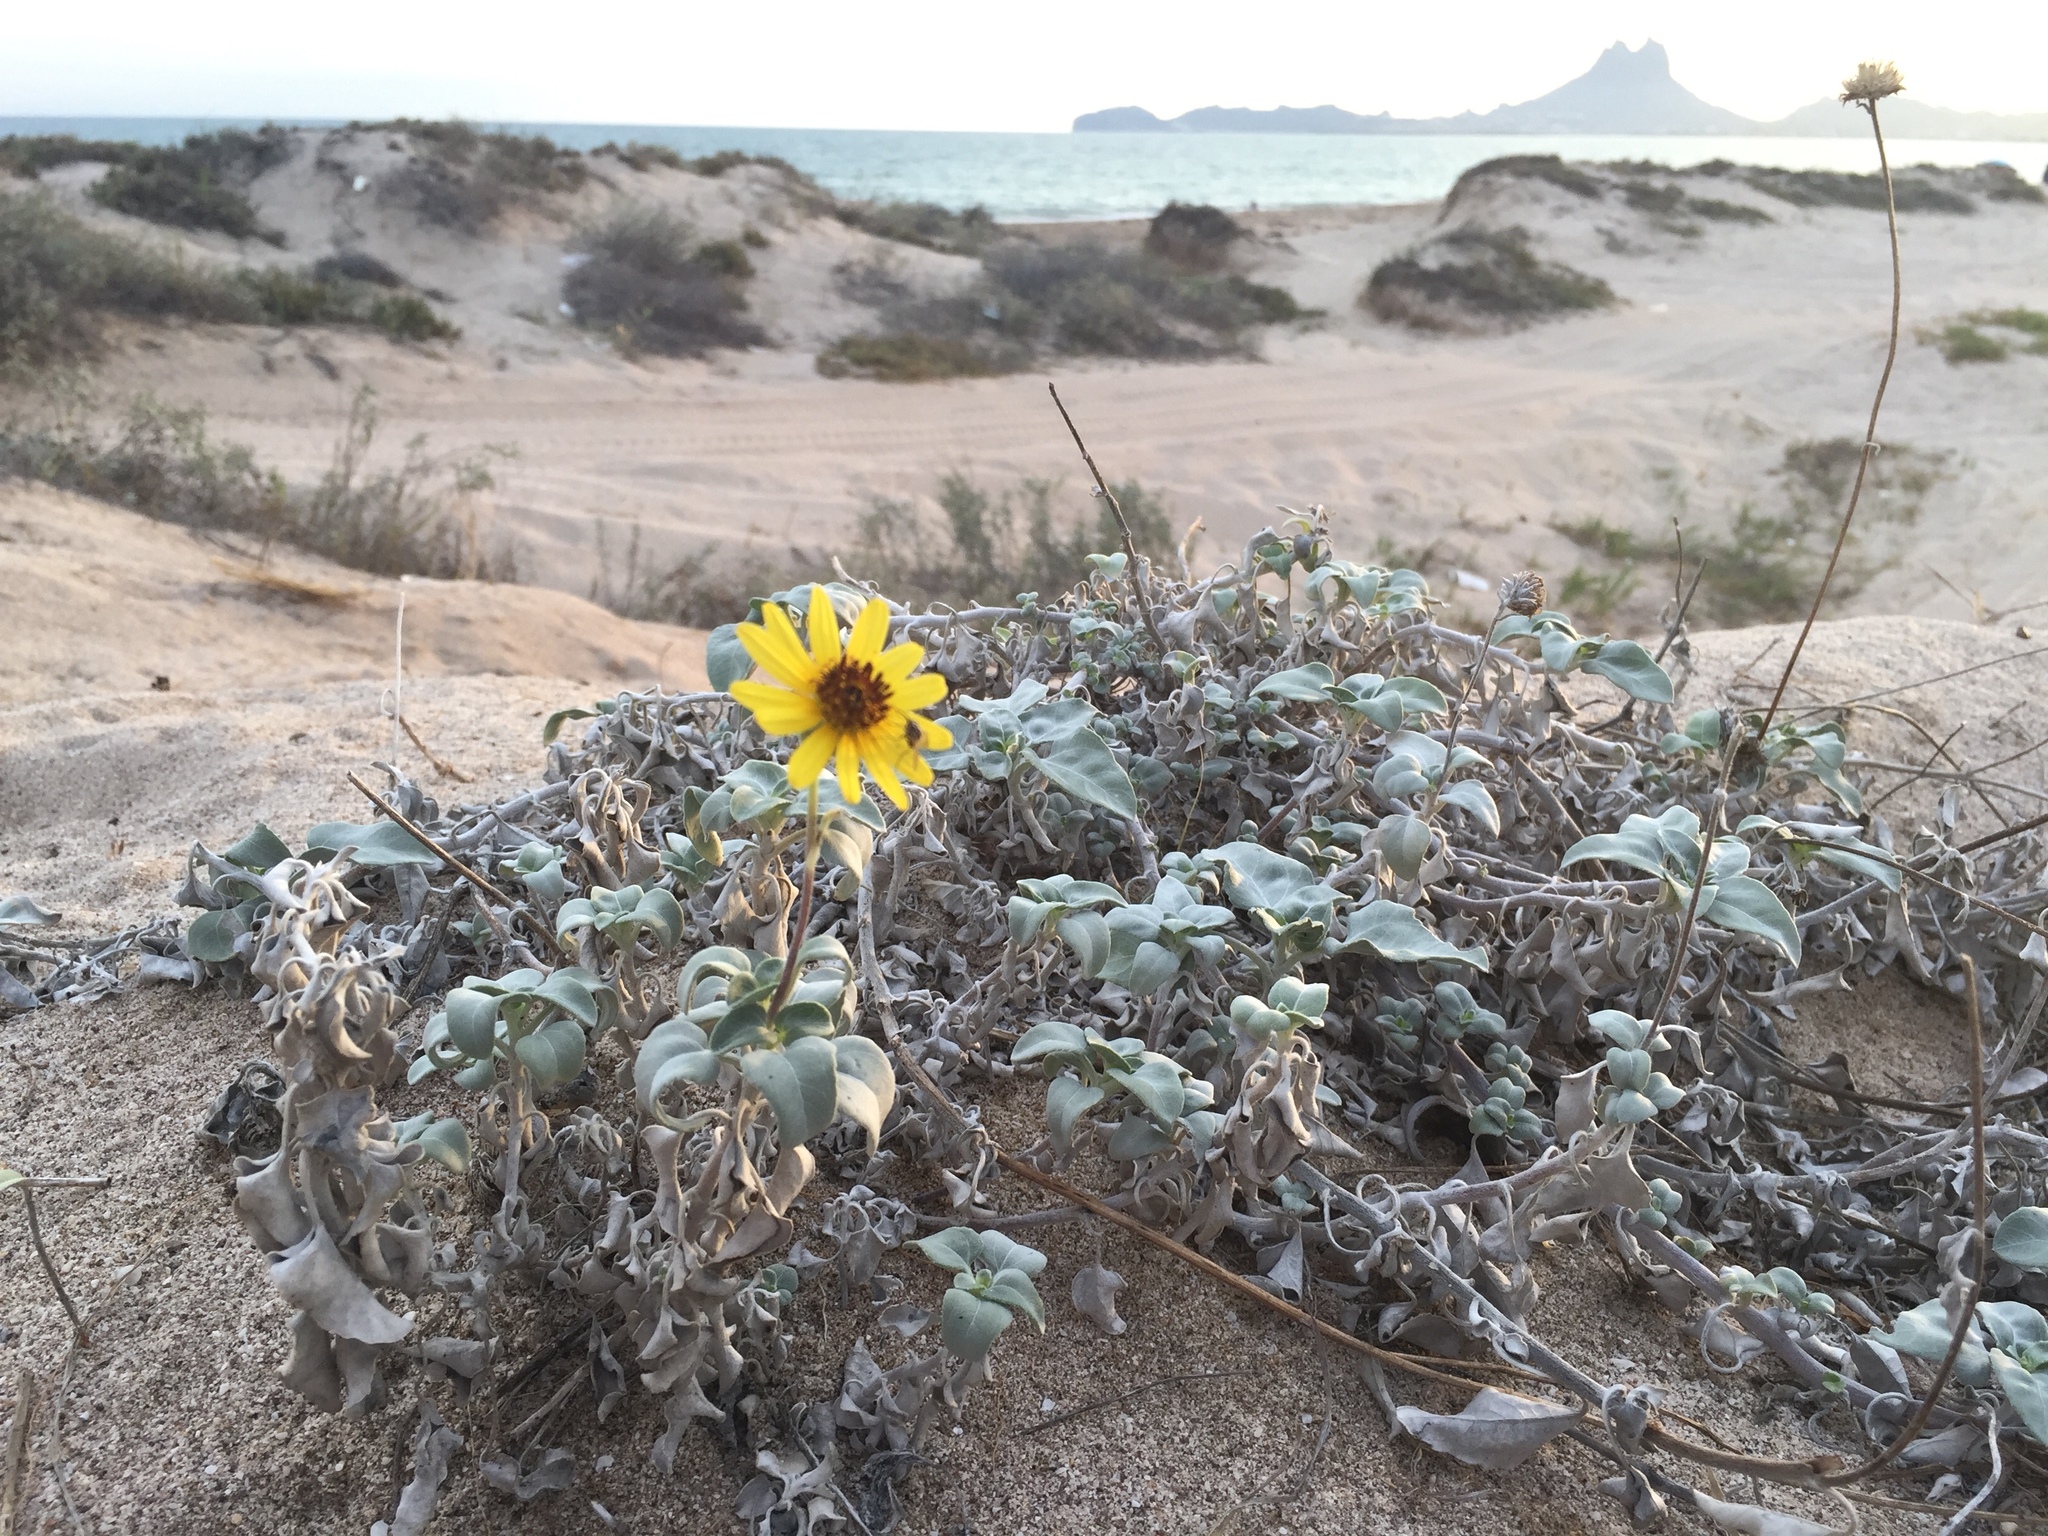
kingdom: Plantae
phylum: Tracheophyta
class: Magnoliopsida
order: Asterales
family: Asteraceae
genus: Encelia
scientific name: Encelia farinosa
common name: Brittlebush
